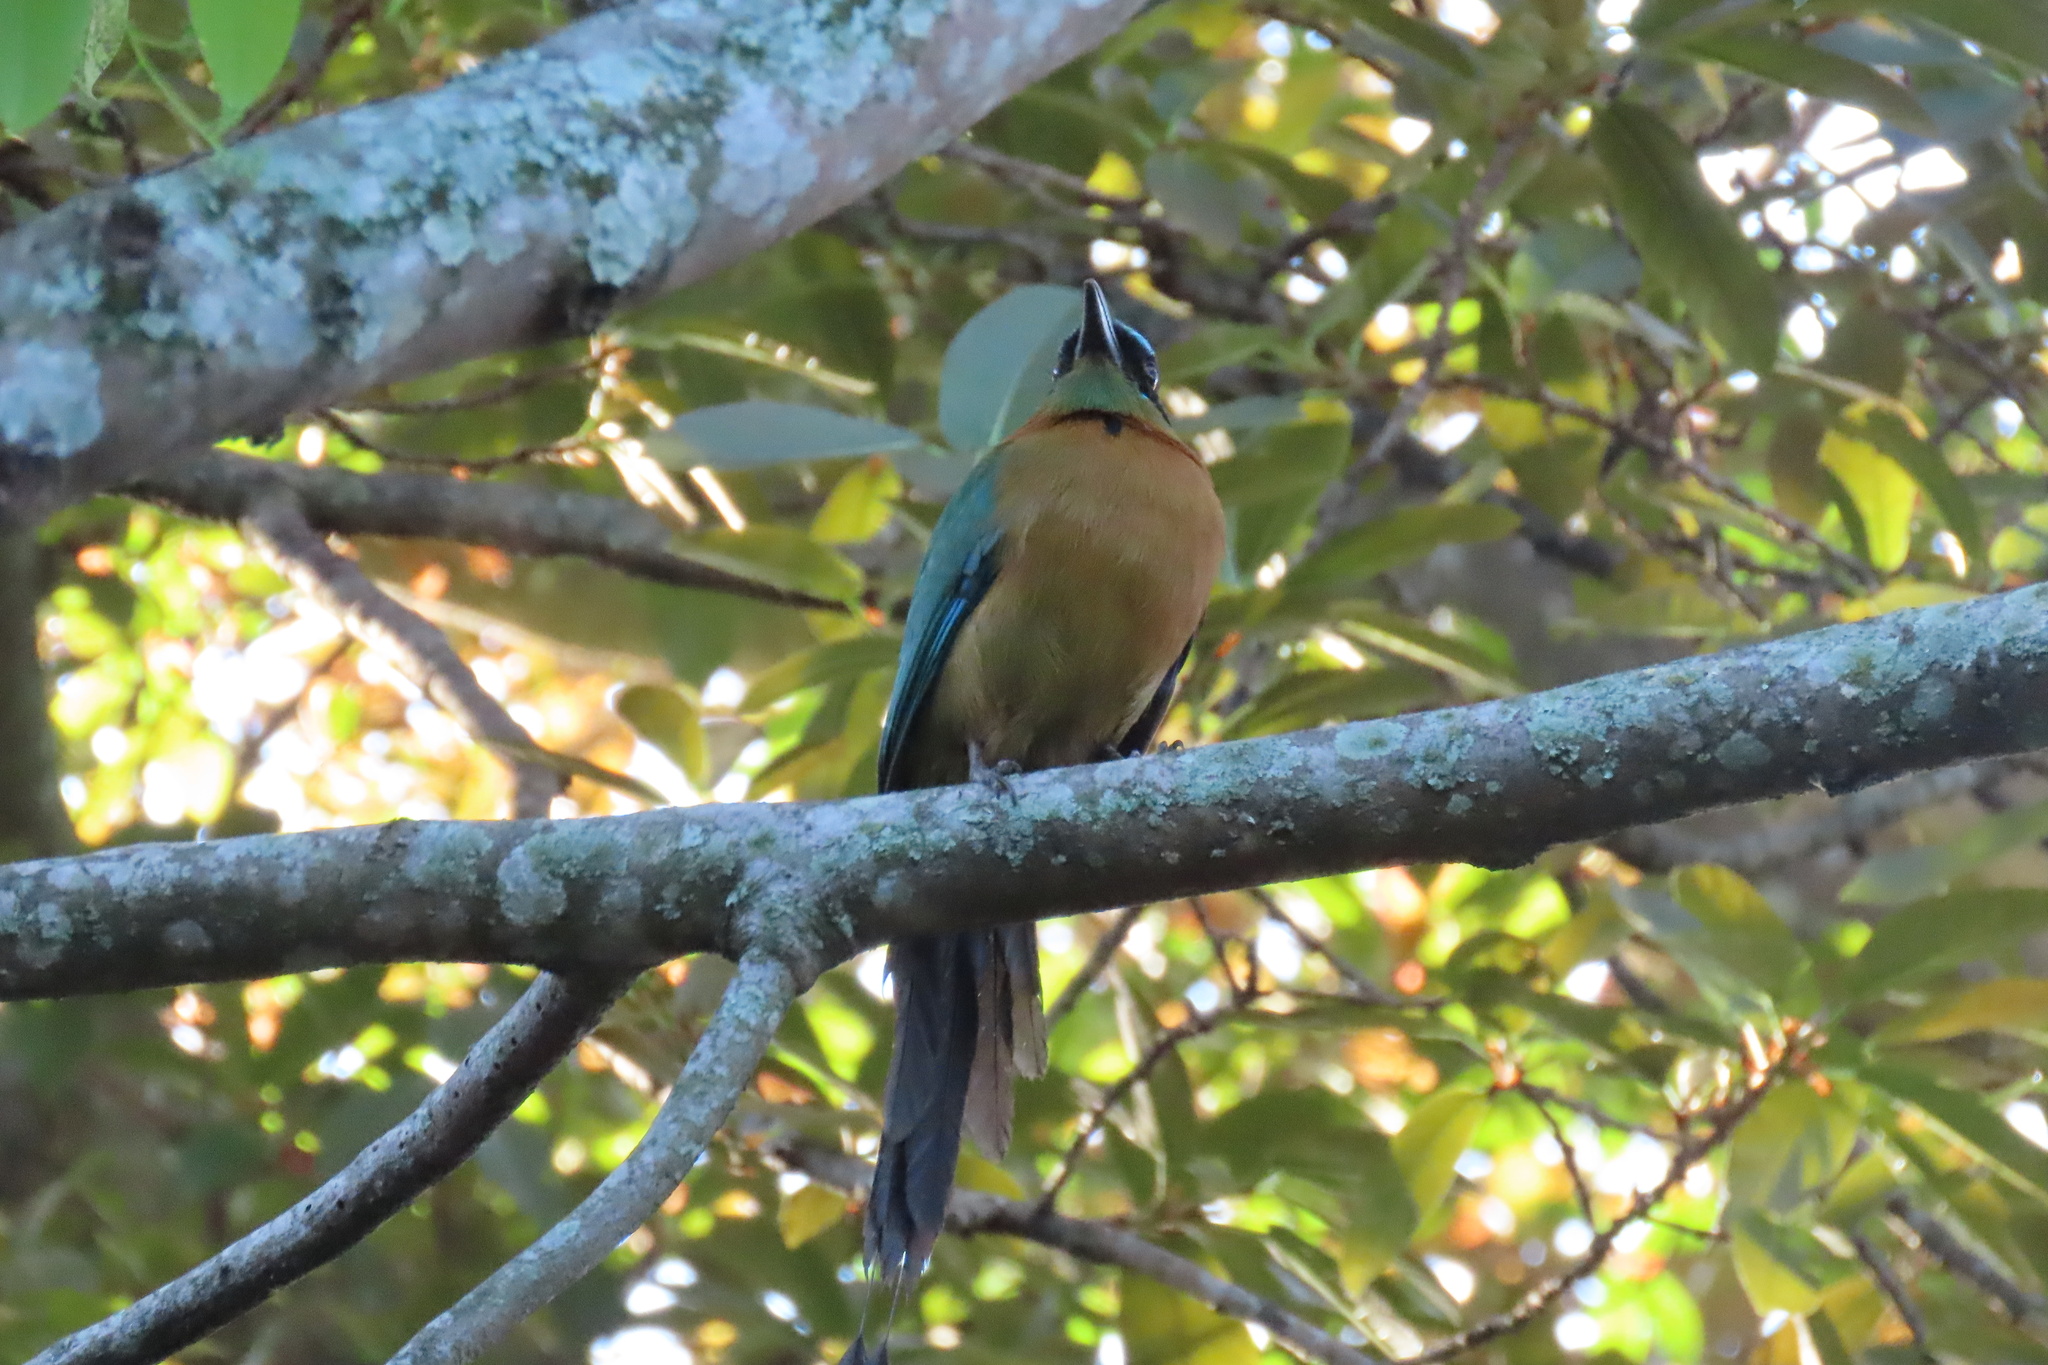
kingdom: Animalia
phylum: Chordata
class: Aves
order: Coraciiformes
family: Momotidae
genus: Momotus
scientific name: Momotus lessonii
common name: Lesson's motmot
